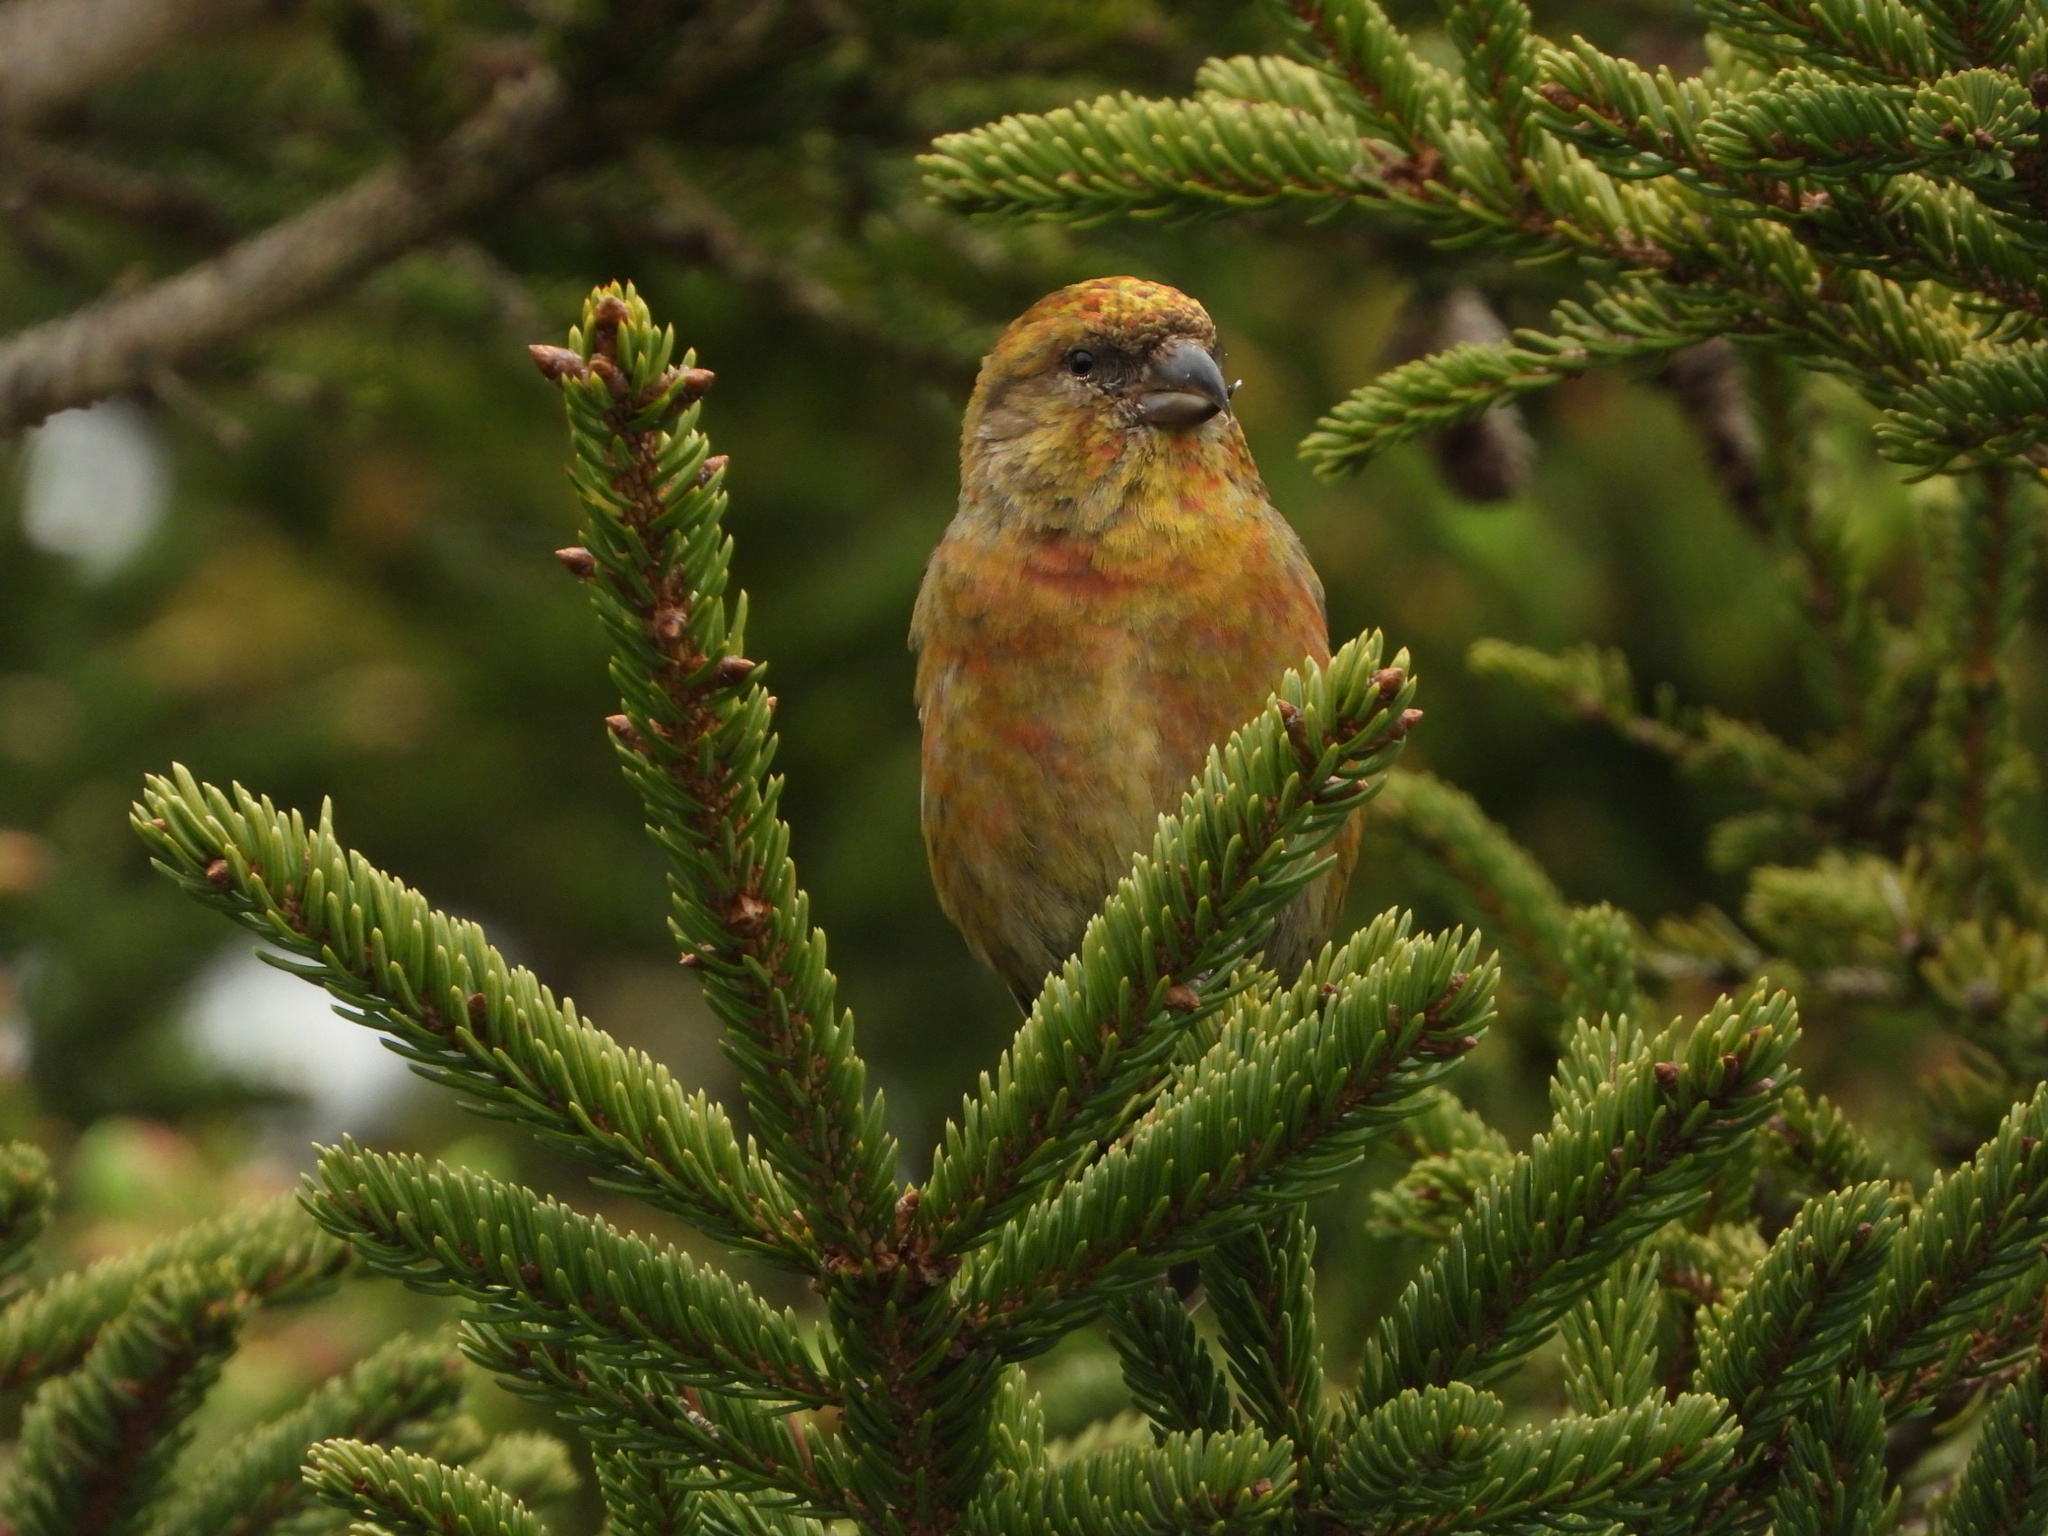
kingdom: Animalia
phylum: Chordata
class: Aves
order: Passeriformes
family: Fringillidae
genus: Loxia
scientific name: Loxia curvirostra
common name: Red crossbill
